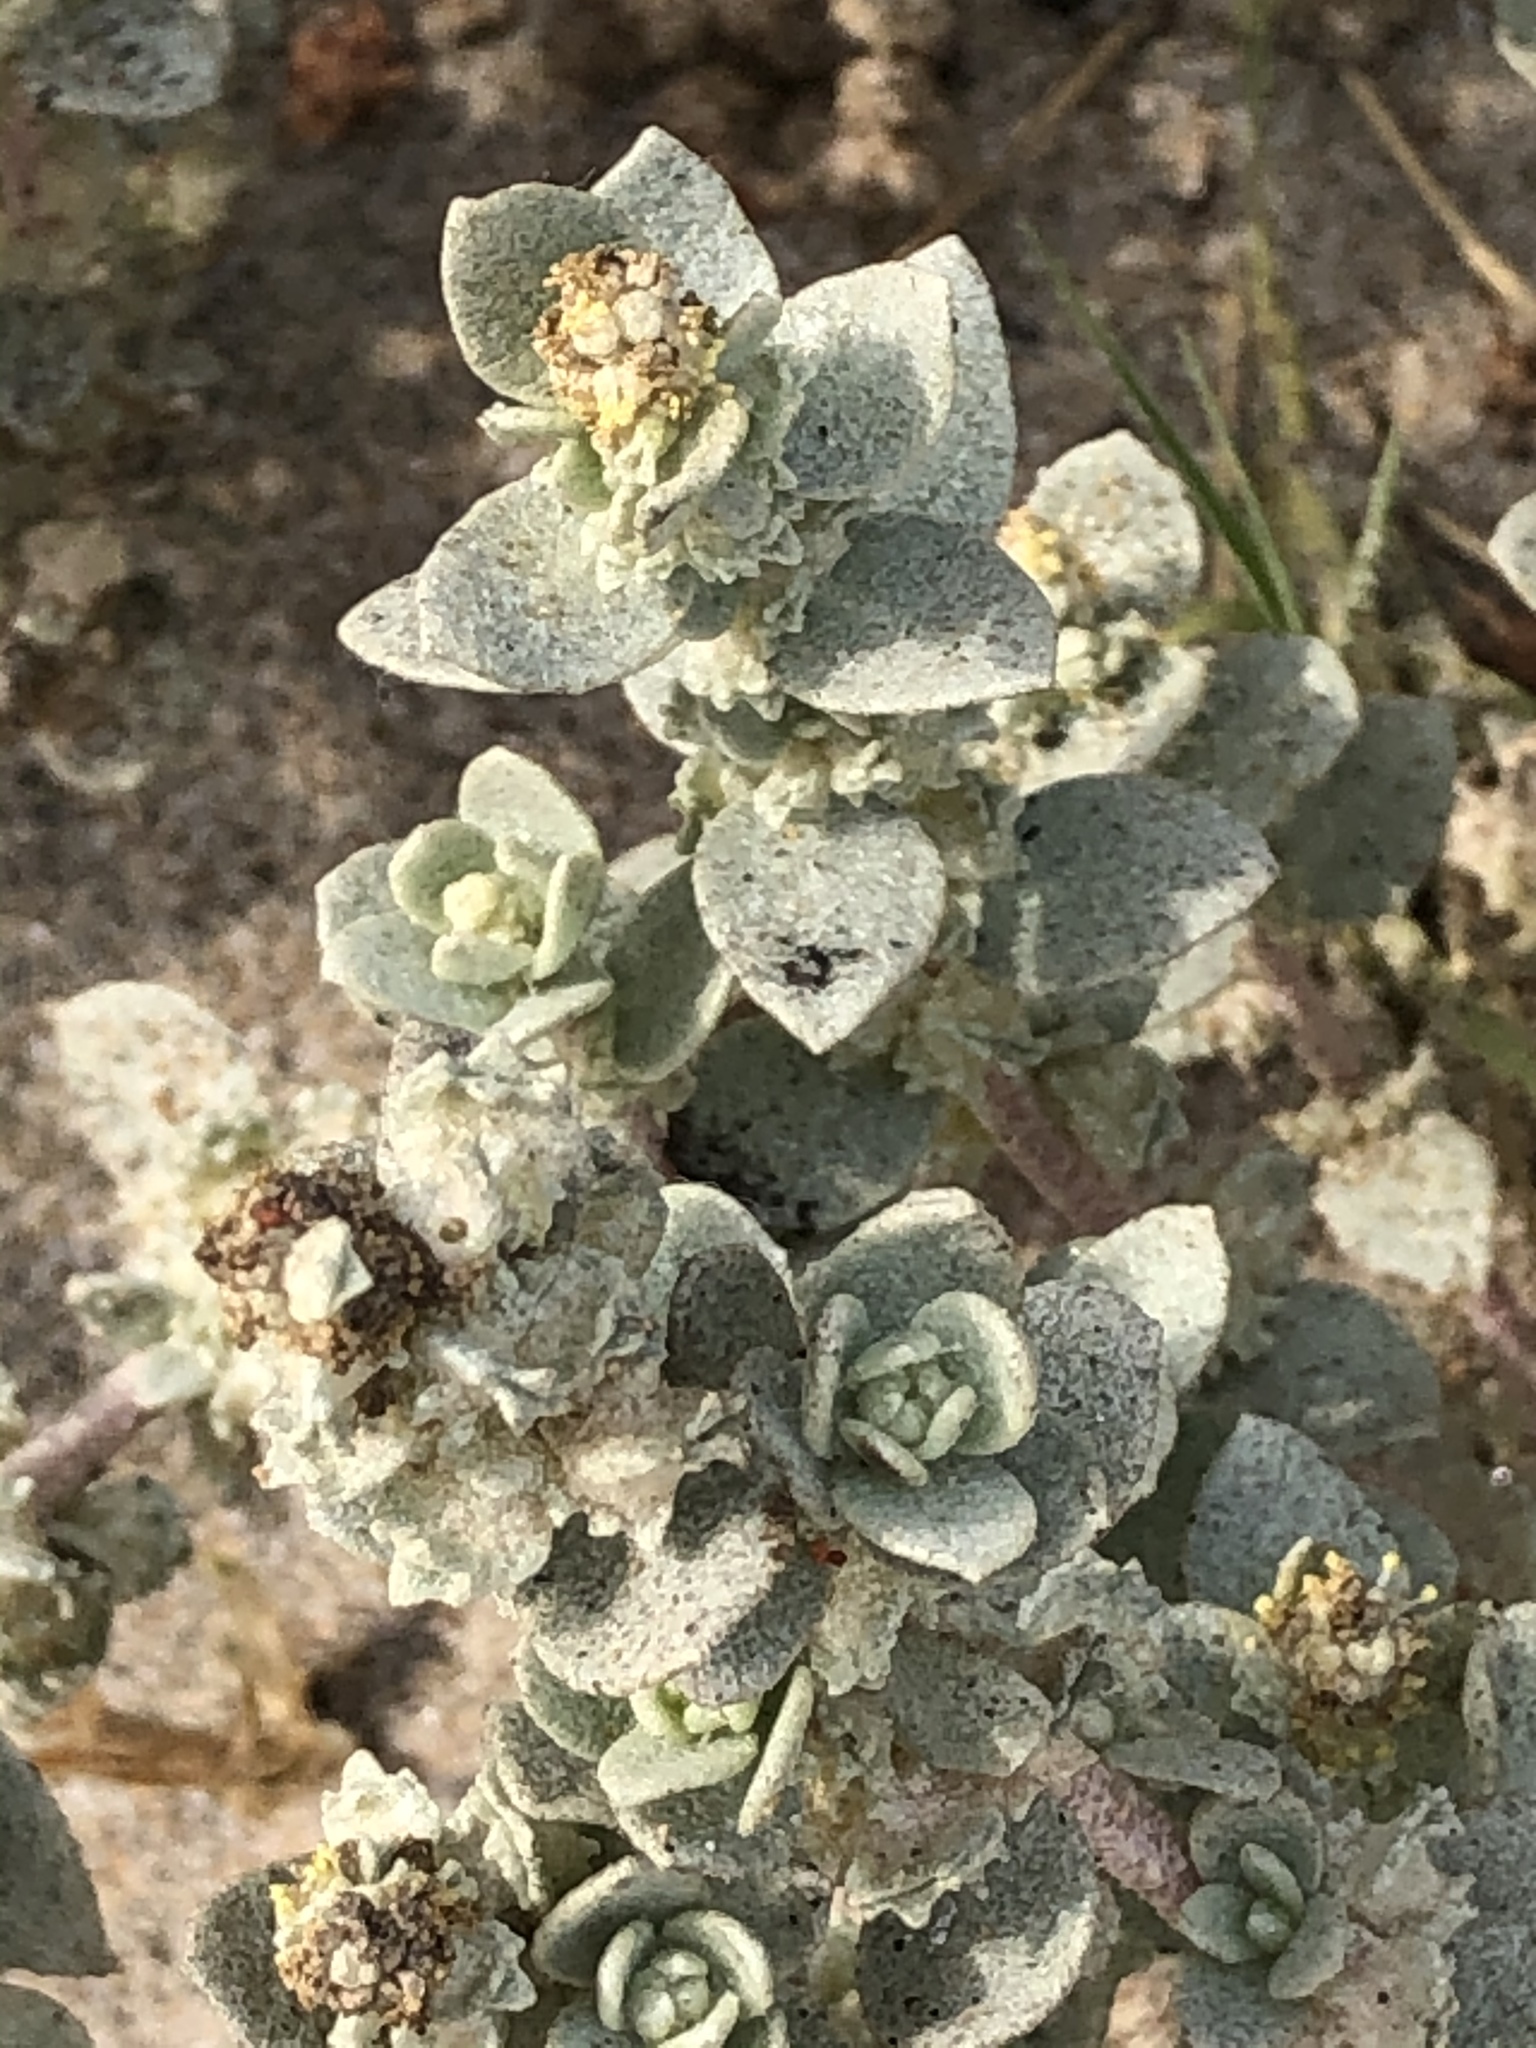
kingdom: Plantae
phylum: Tracheophyta
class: Magnoliopsida
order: Caryophyllales
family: Amaranthaceae
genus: Atriplex
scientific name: Atriplex leucophylla
